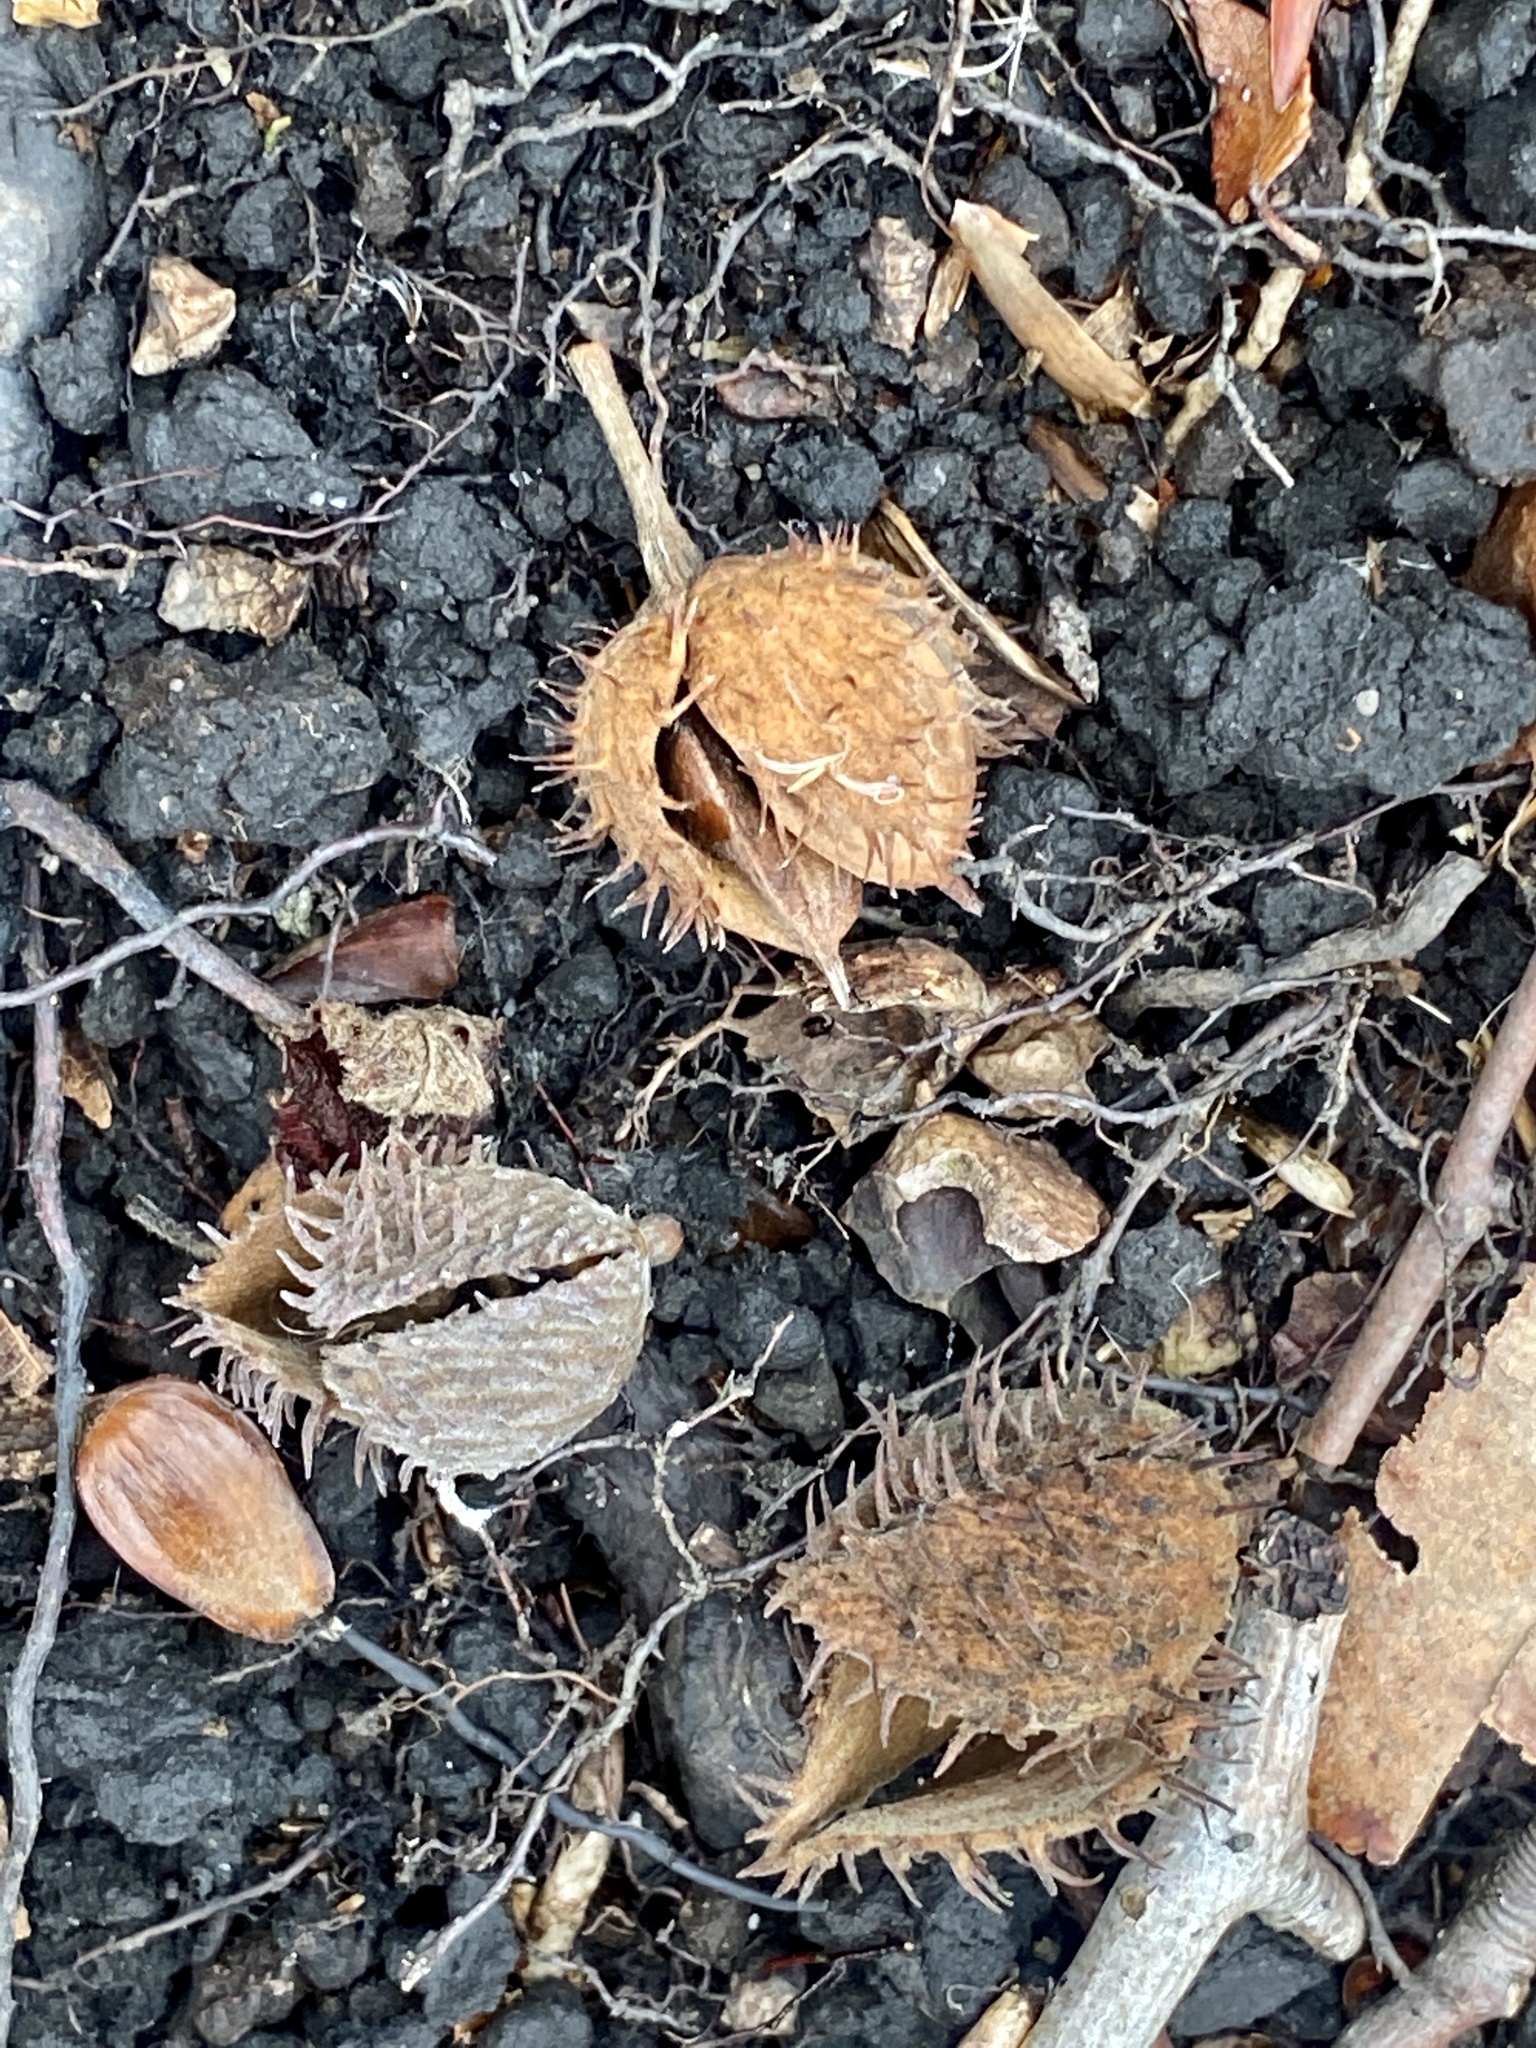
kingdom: Plantae
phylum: Tracheophyta
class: Magnoliopsida
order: Fagales
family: Fagaceae
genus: Fagus
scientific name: Fagus grandifolia
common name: American beech
